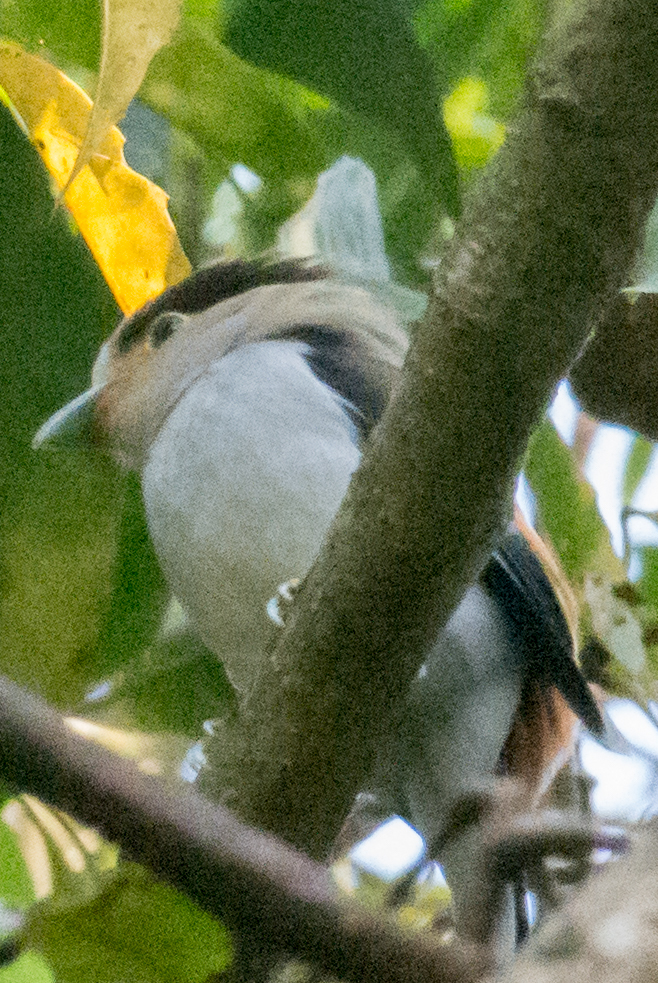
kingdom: Animalia
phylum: Chordata
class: Aves
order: Passeriformes
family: Eurylaimidae
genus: Serilophus
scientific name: Serilophus lunatus
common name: Silver-breasted broadbill
